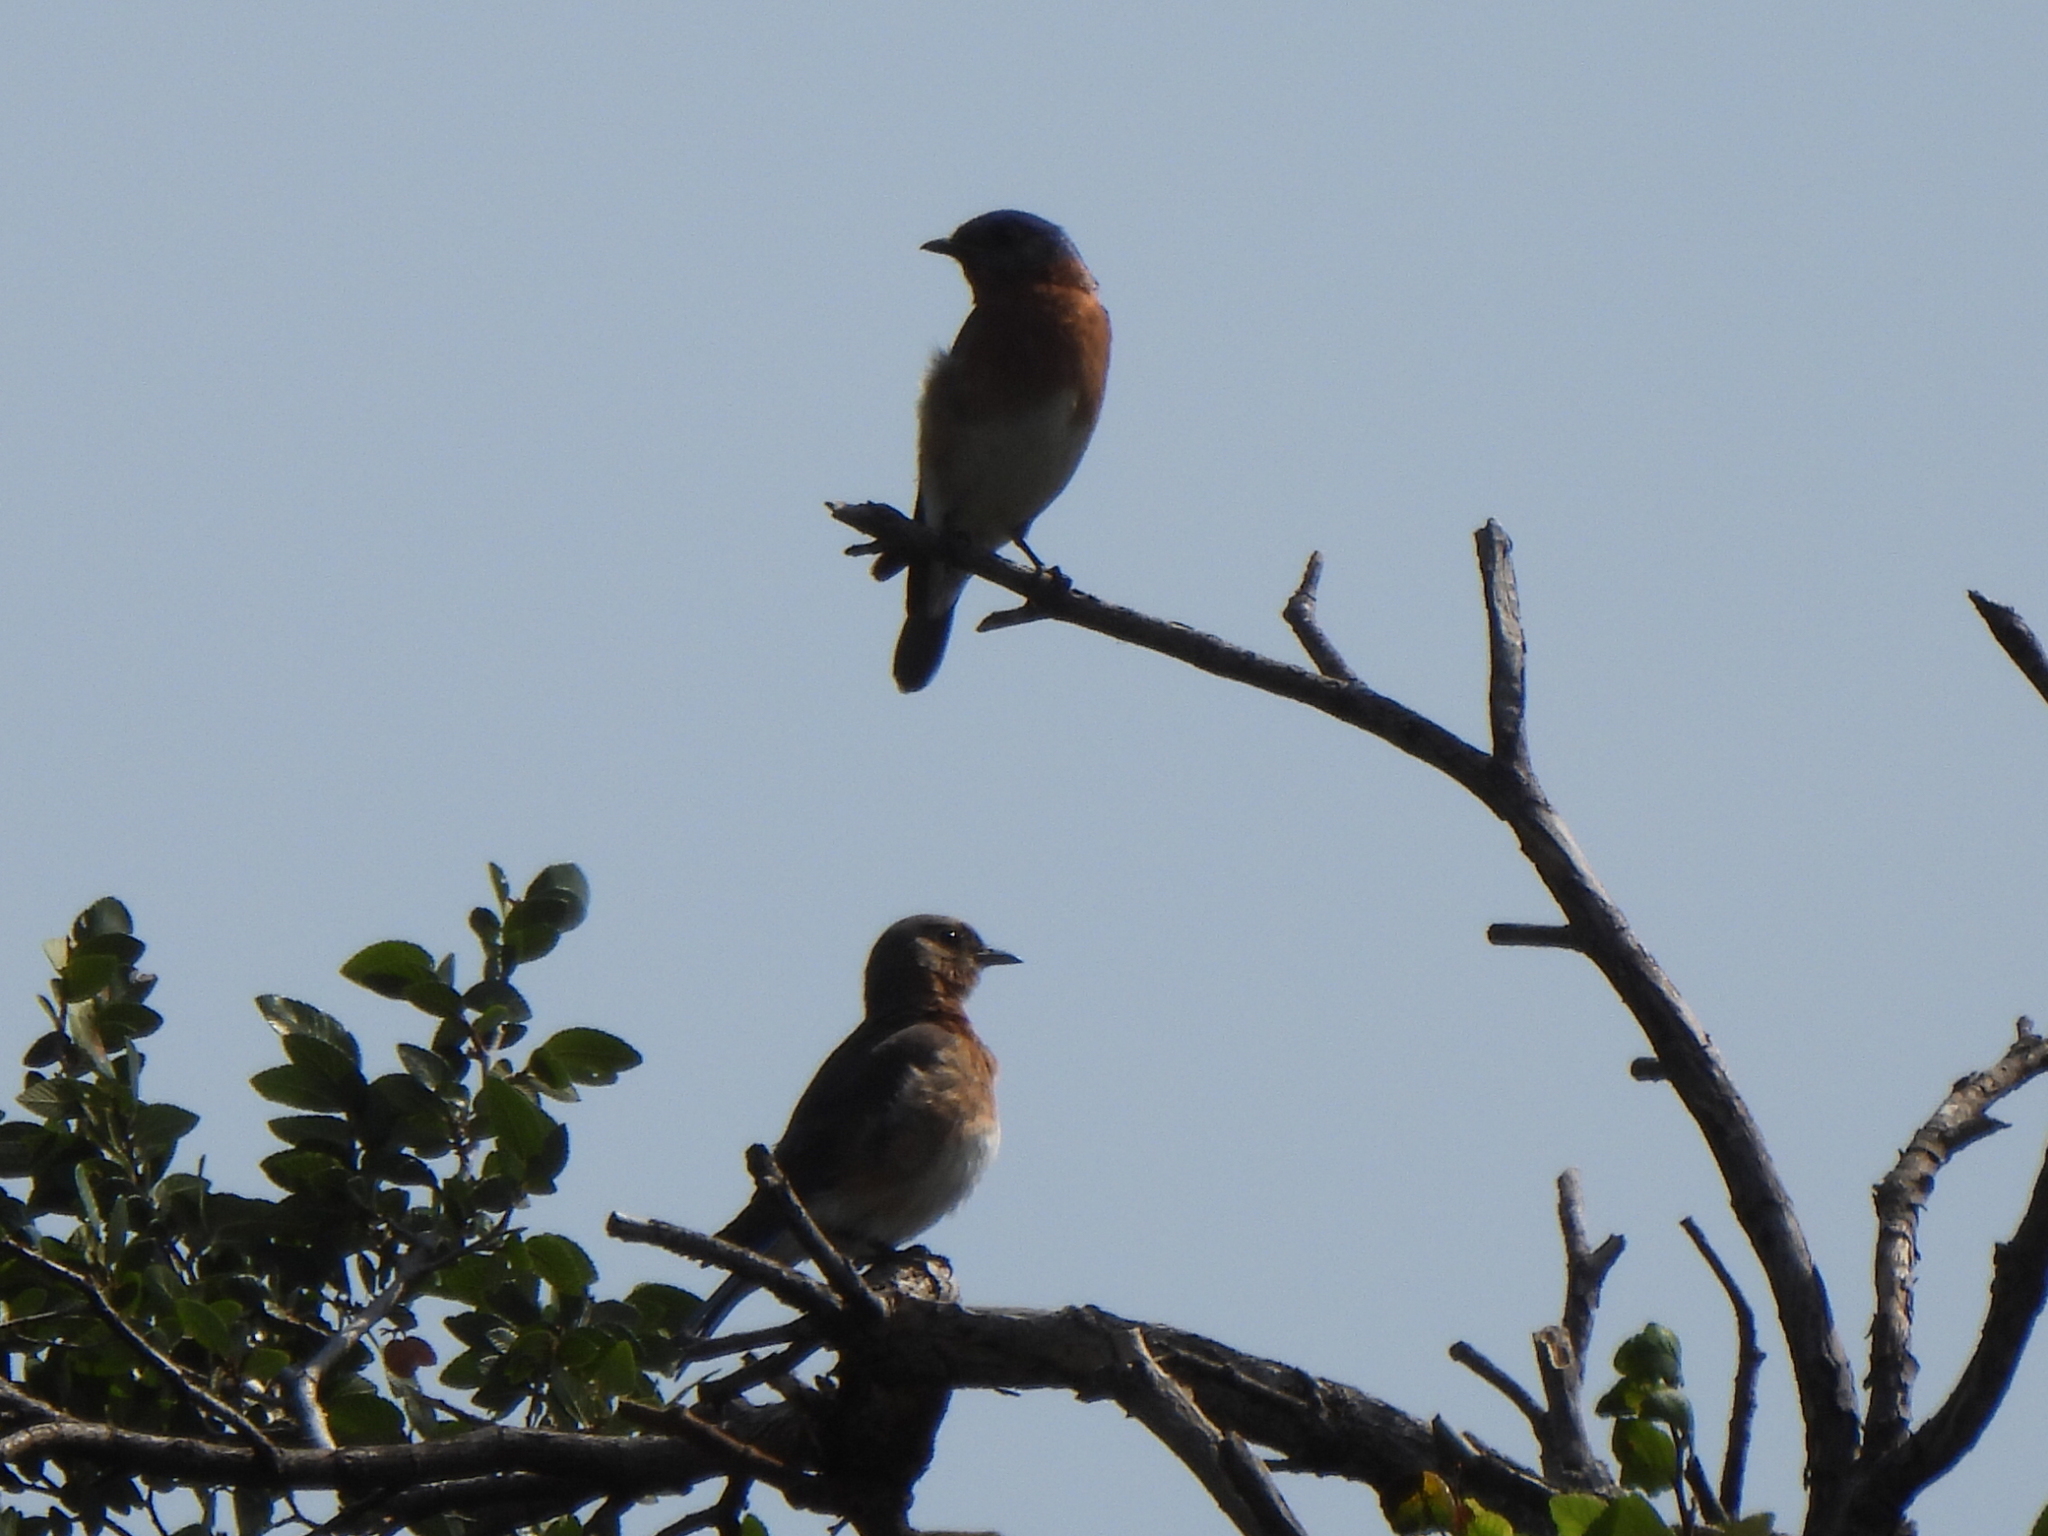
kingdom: Animalia
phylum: Chordata
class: Aves
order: Passeriformes
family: Turdidae
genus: Sialia
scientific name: Sialia sialis
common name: Eastern bluebird
